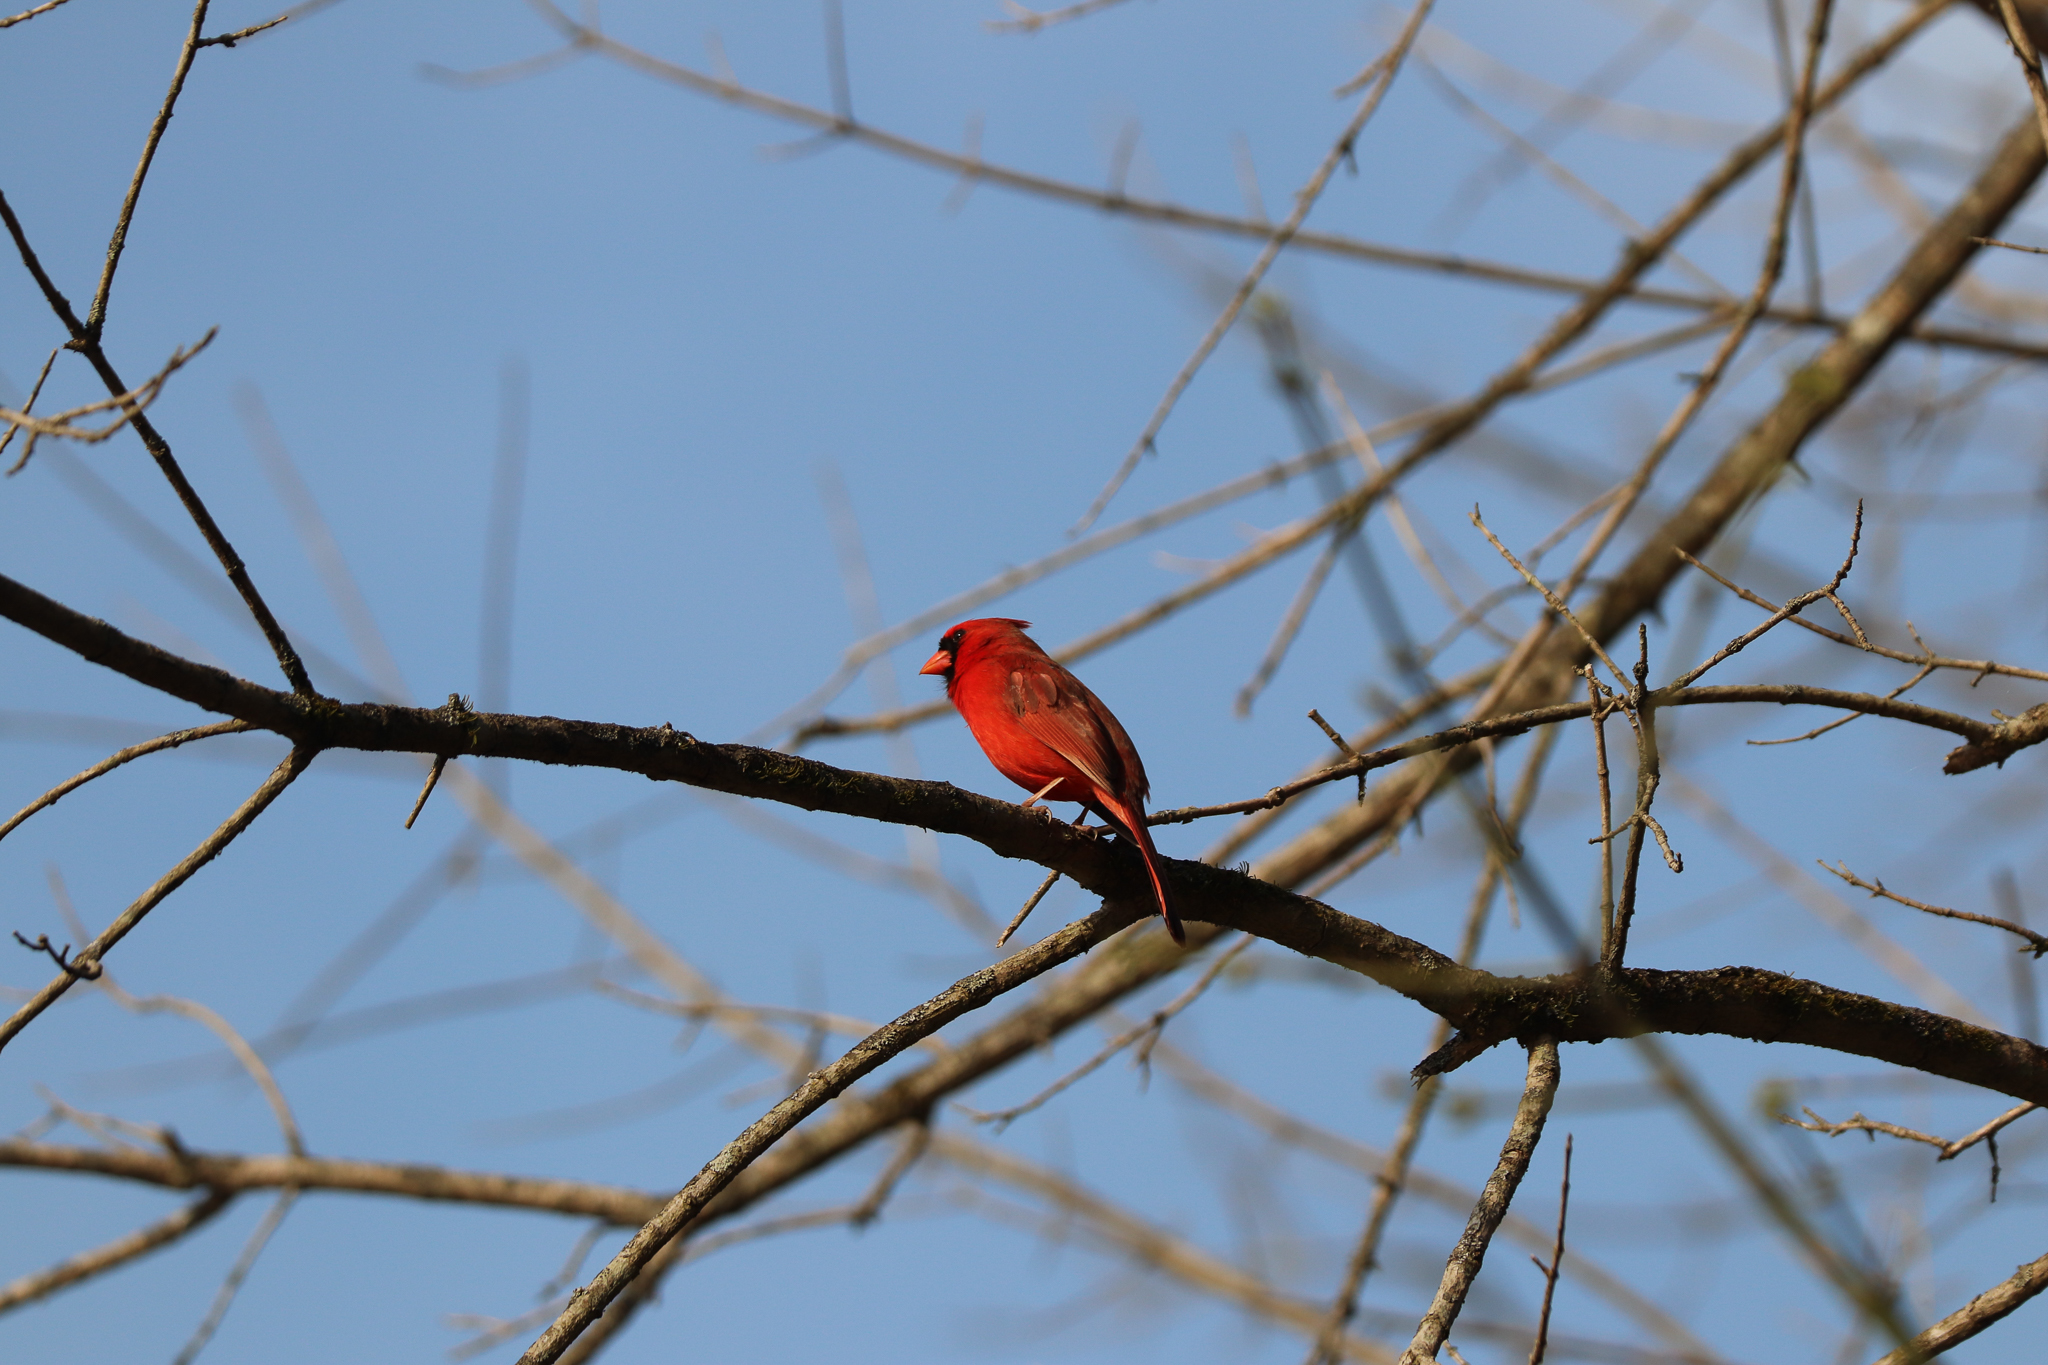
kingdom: Animalia
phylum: Chordata
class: Aves
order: Passeriformes
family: Cardinalidae
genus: Cardinalis
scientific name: Cardinalis cardinalis
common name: Northern cardinal
